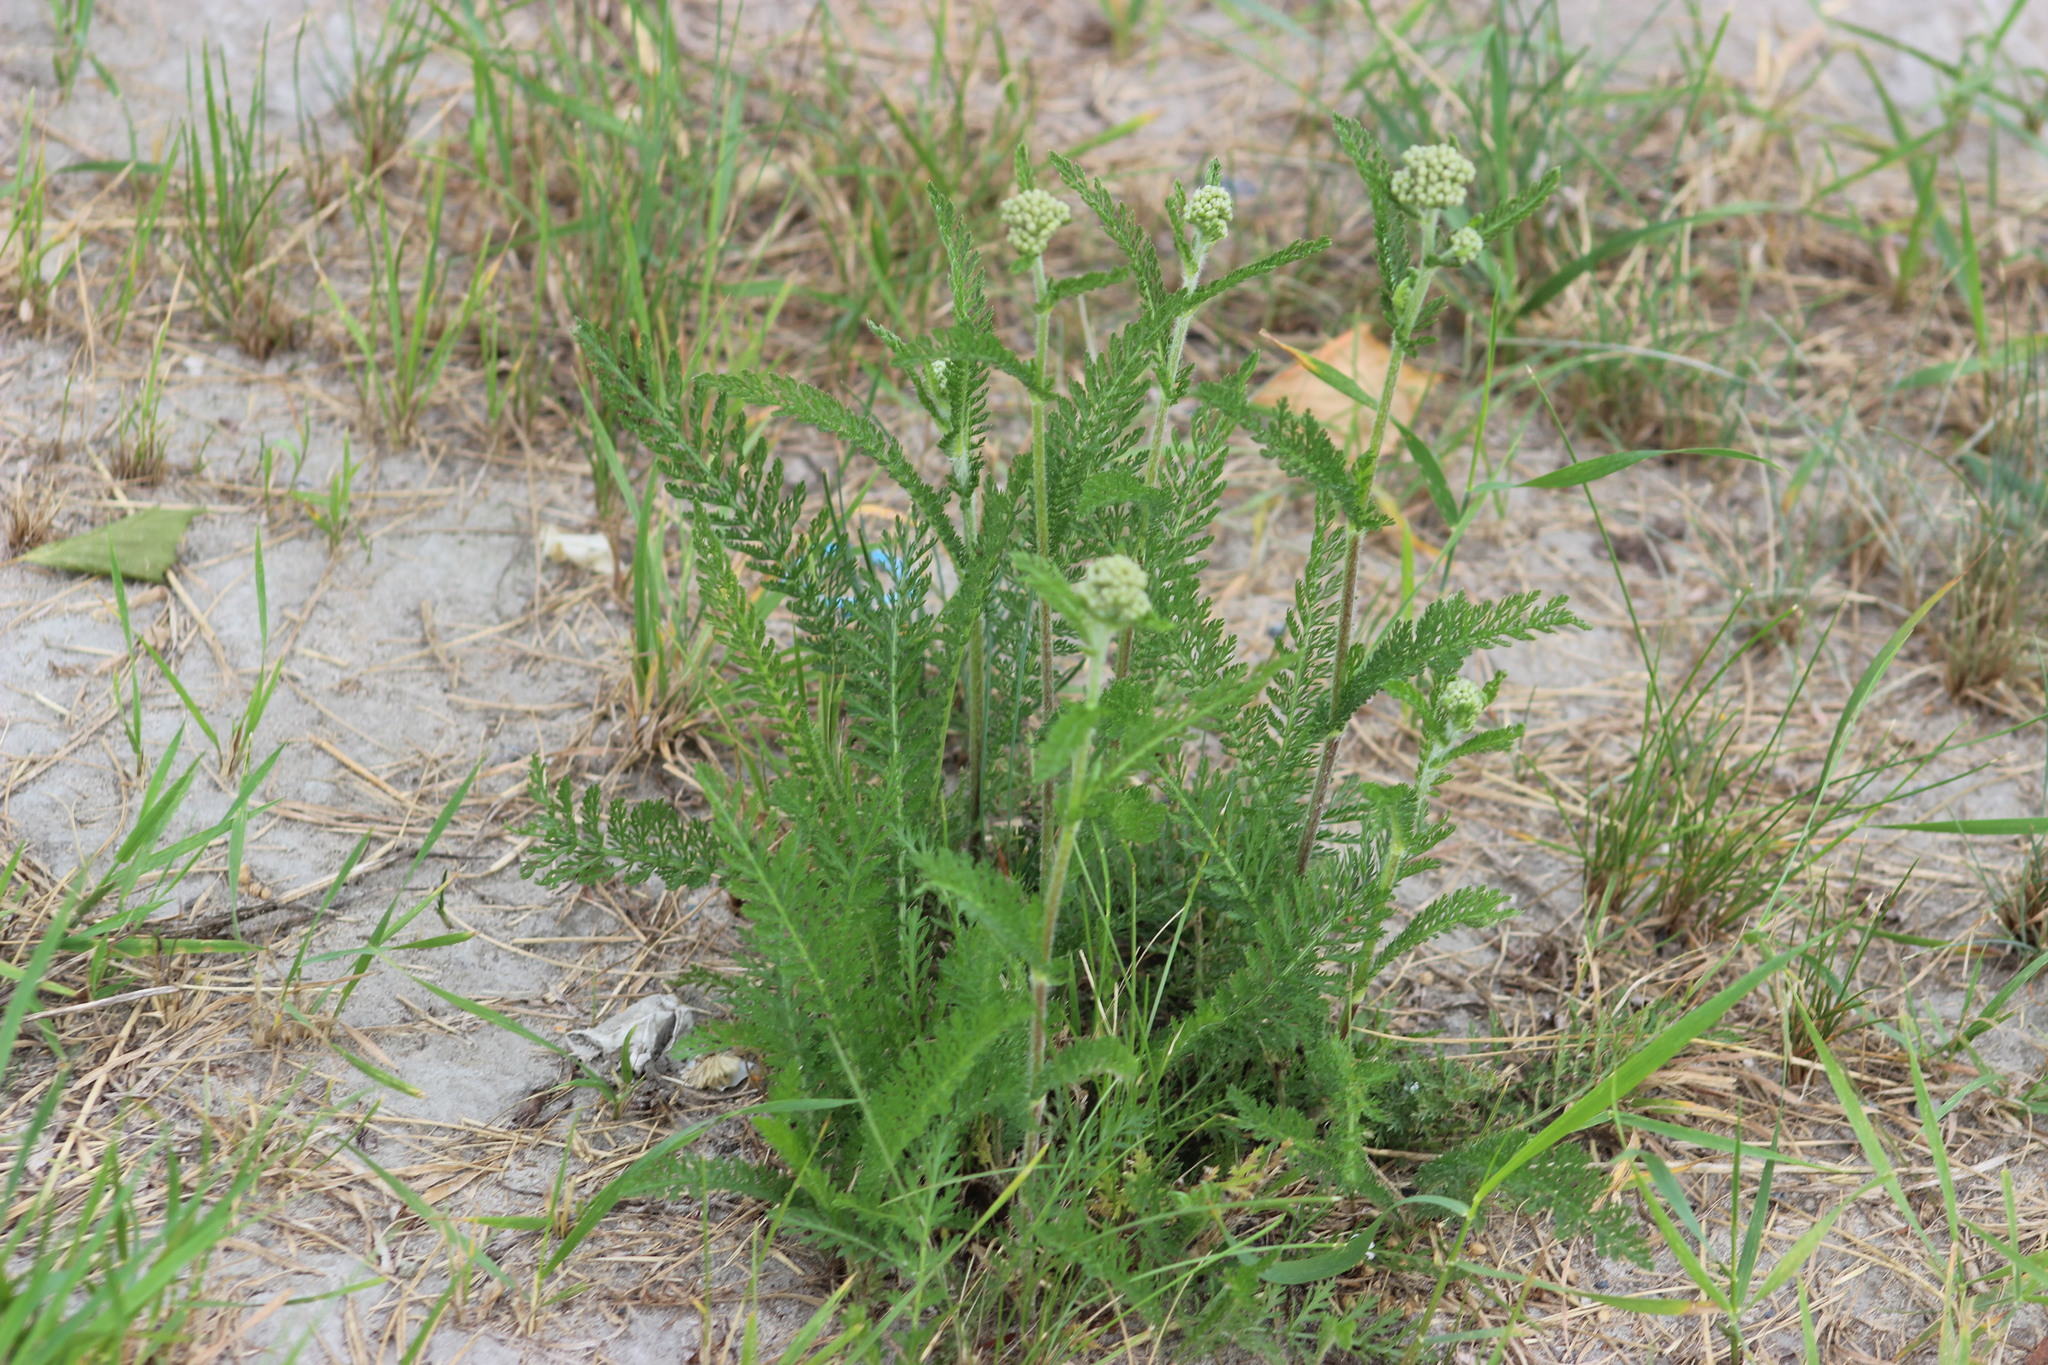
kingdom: Plantae
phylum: Tracheophyta
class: Magnoliopsida
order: Asterales
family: Asteraceae
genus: Achillea
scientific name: Achillea millefolium
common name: Yarrow
